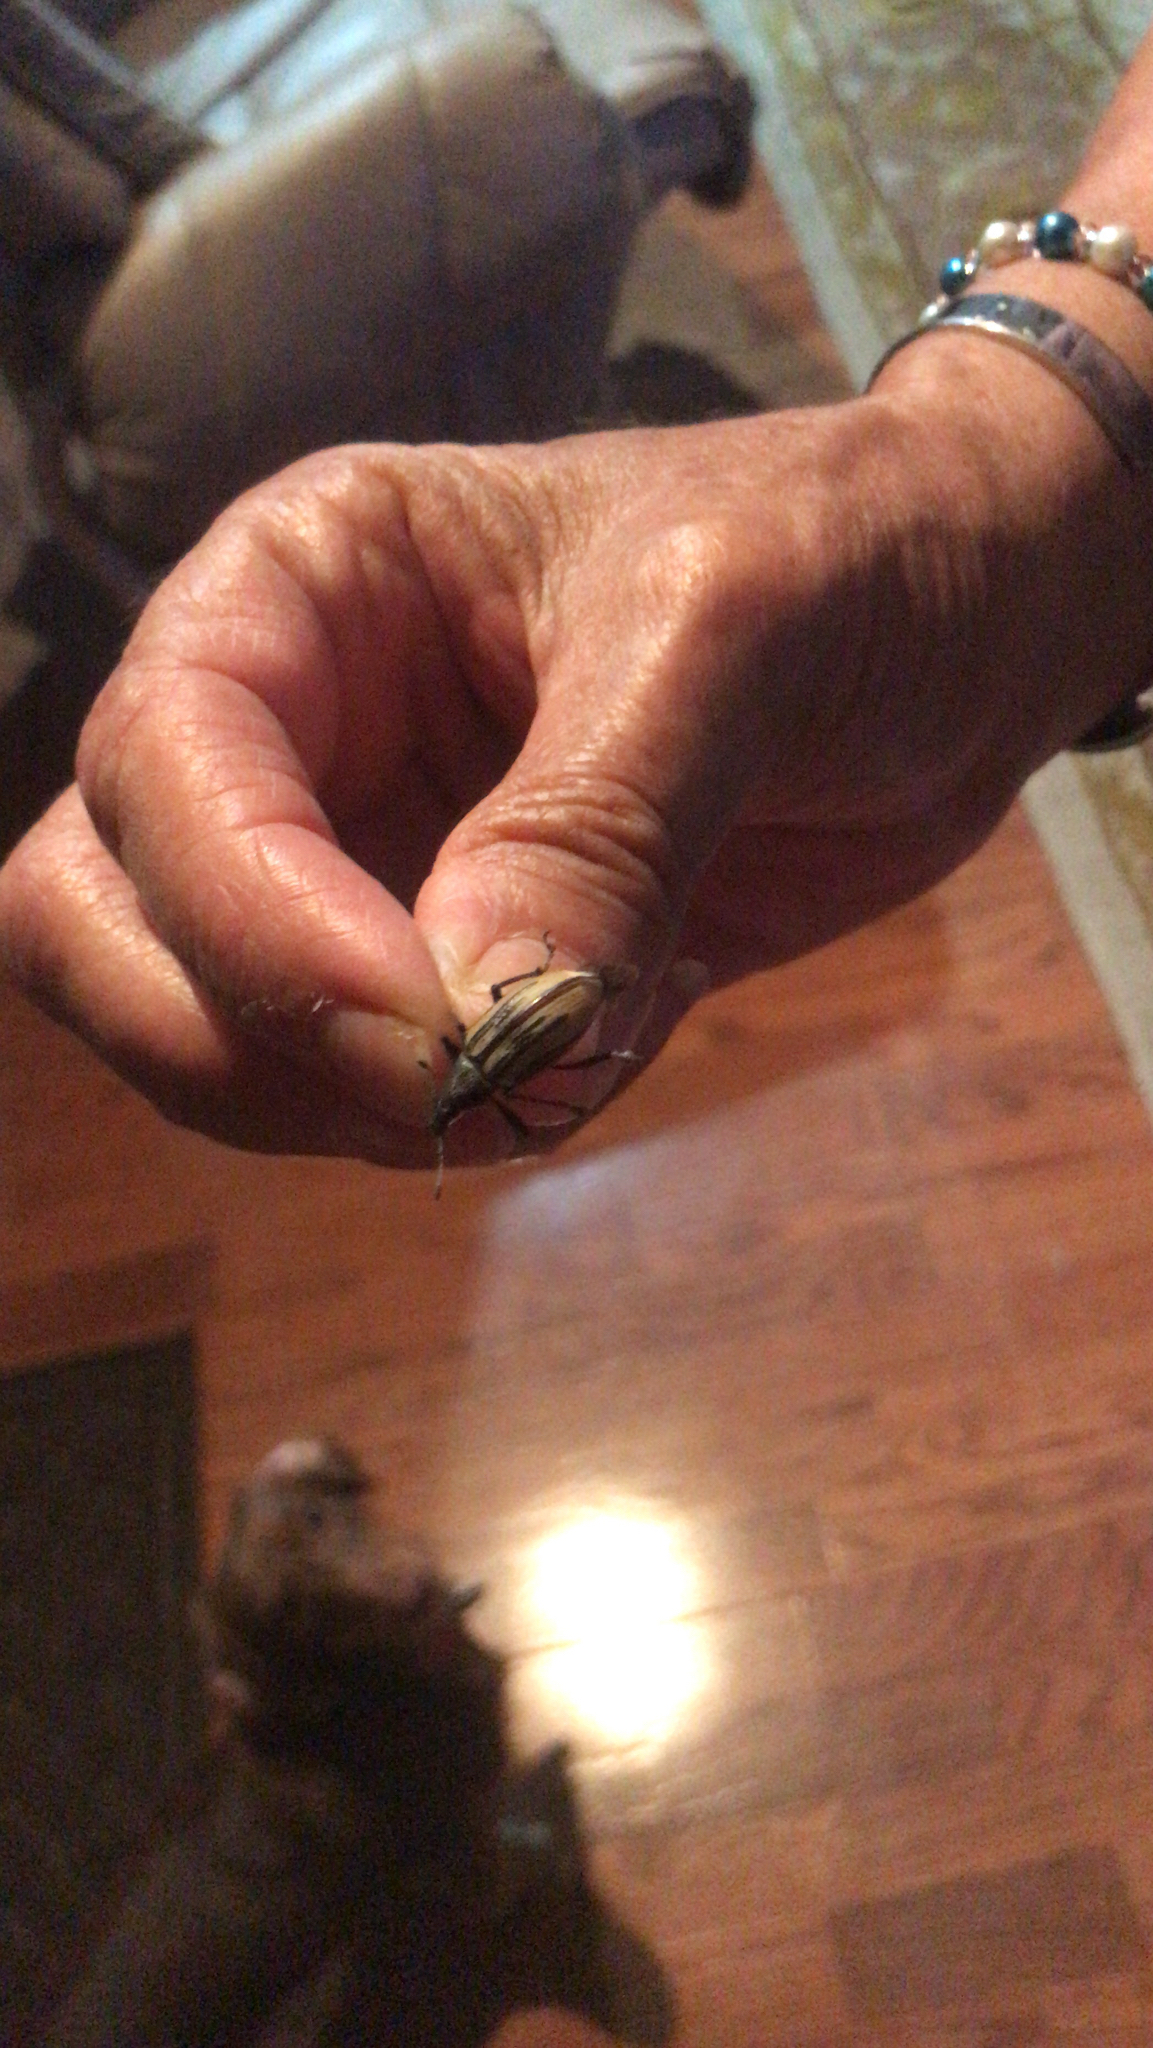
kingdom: Animalia
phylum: Arthropoda
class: Insecta
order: Coleoptera
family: Curculionidae
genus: Diaprepes
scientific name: Diaprepes abbreviatus
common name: Root weevil
